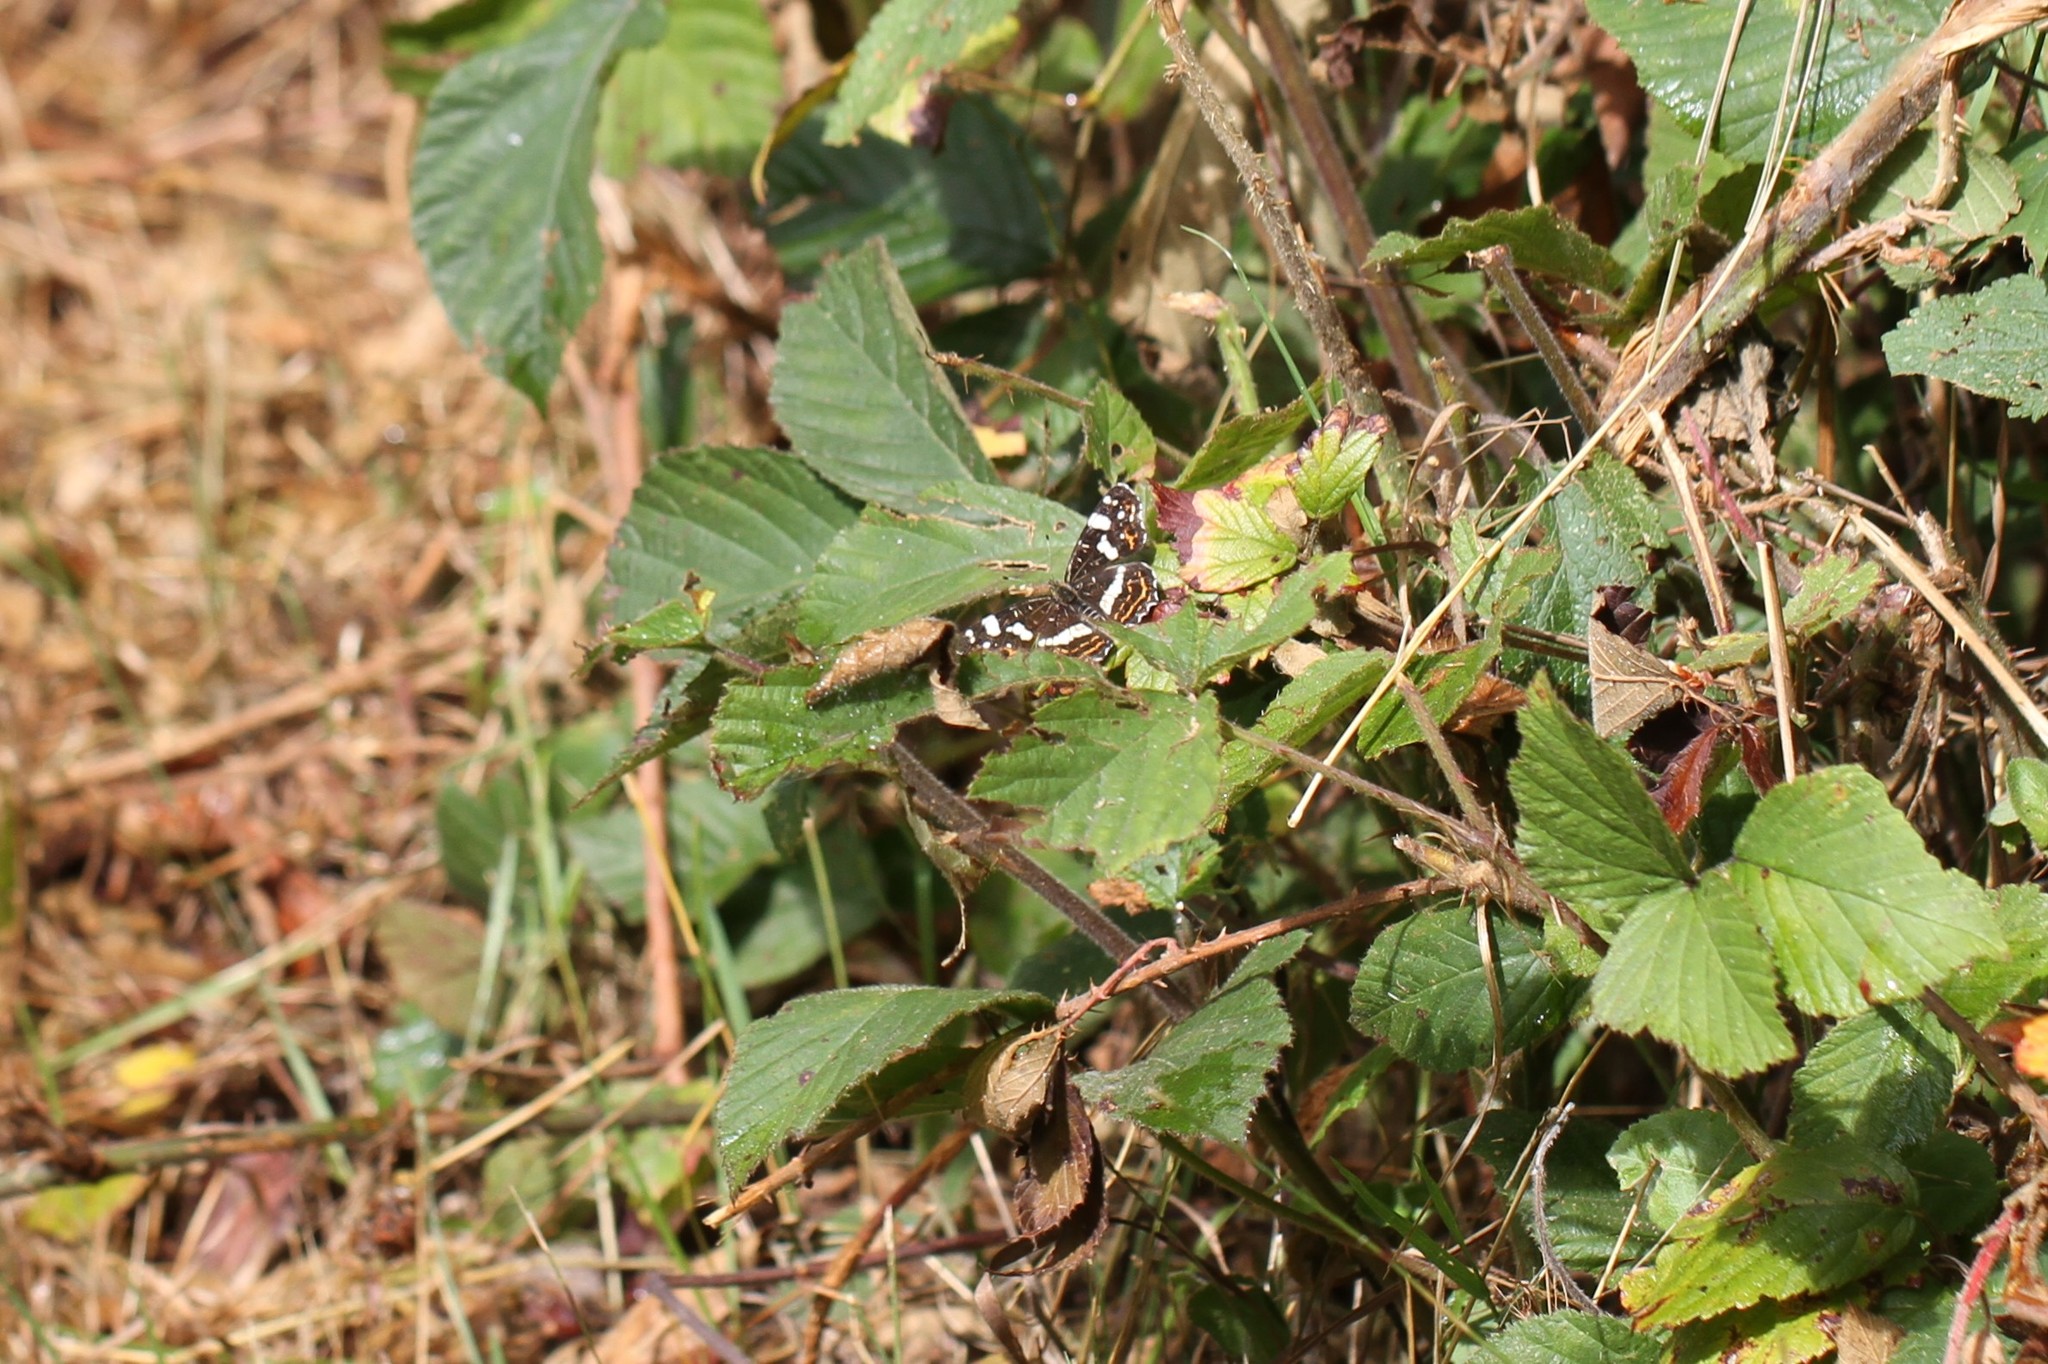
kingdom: Animalia
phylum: Arthropoda
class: Insecta
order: Lepidoptera
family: Nymphalidae
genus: Araschnia
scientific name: Araschnia levana
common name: Map butterfly
